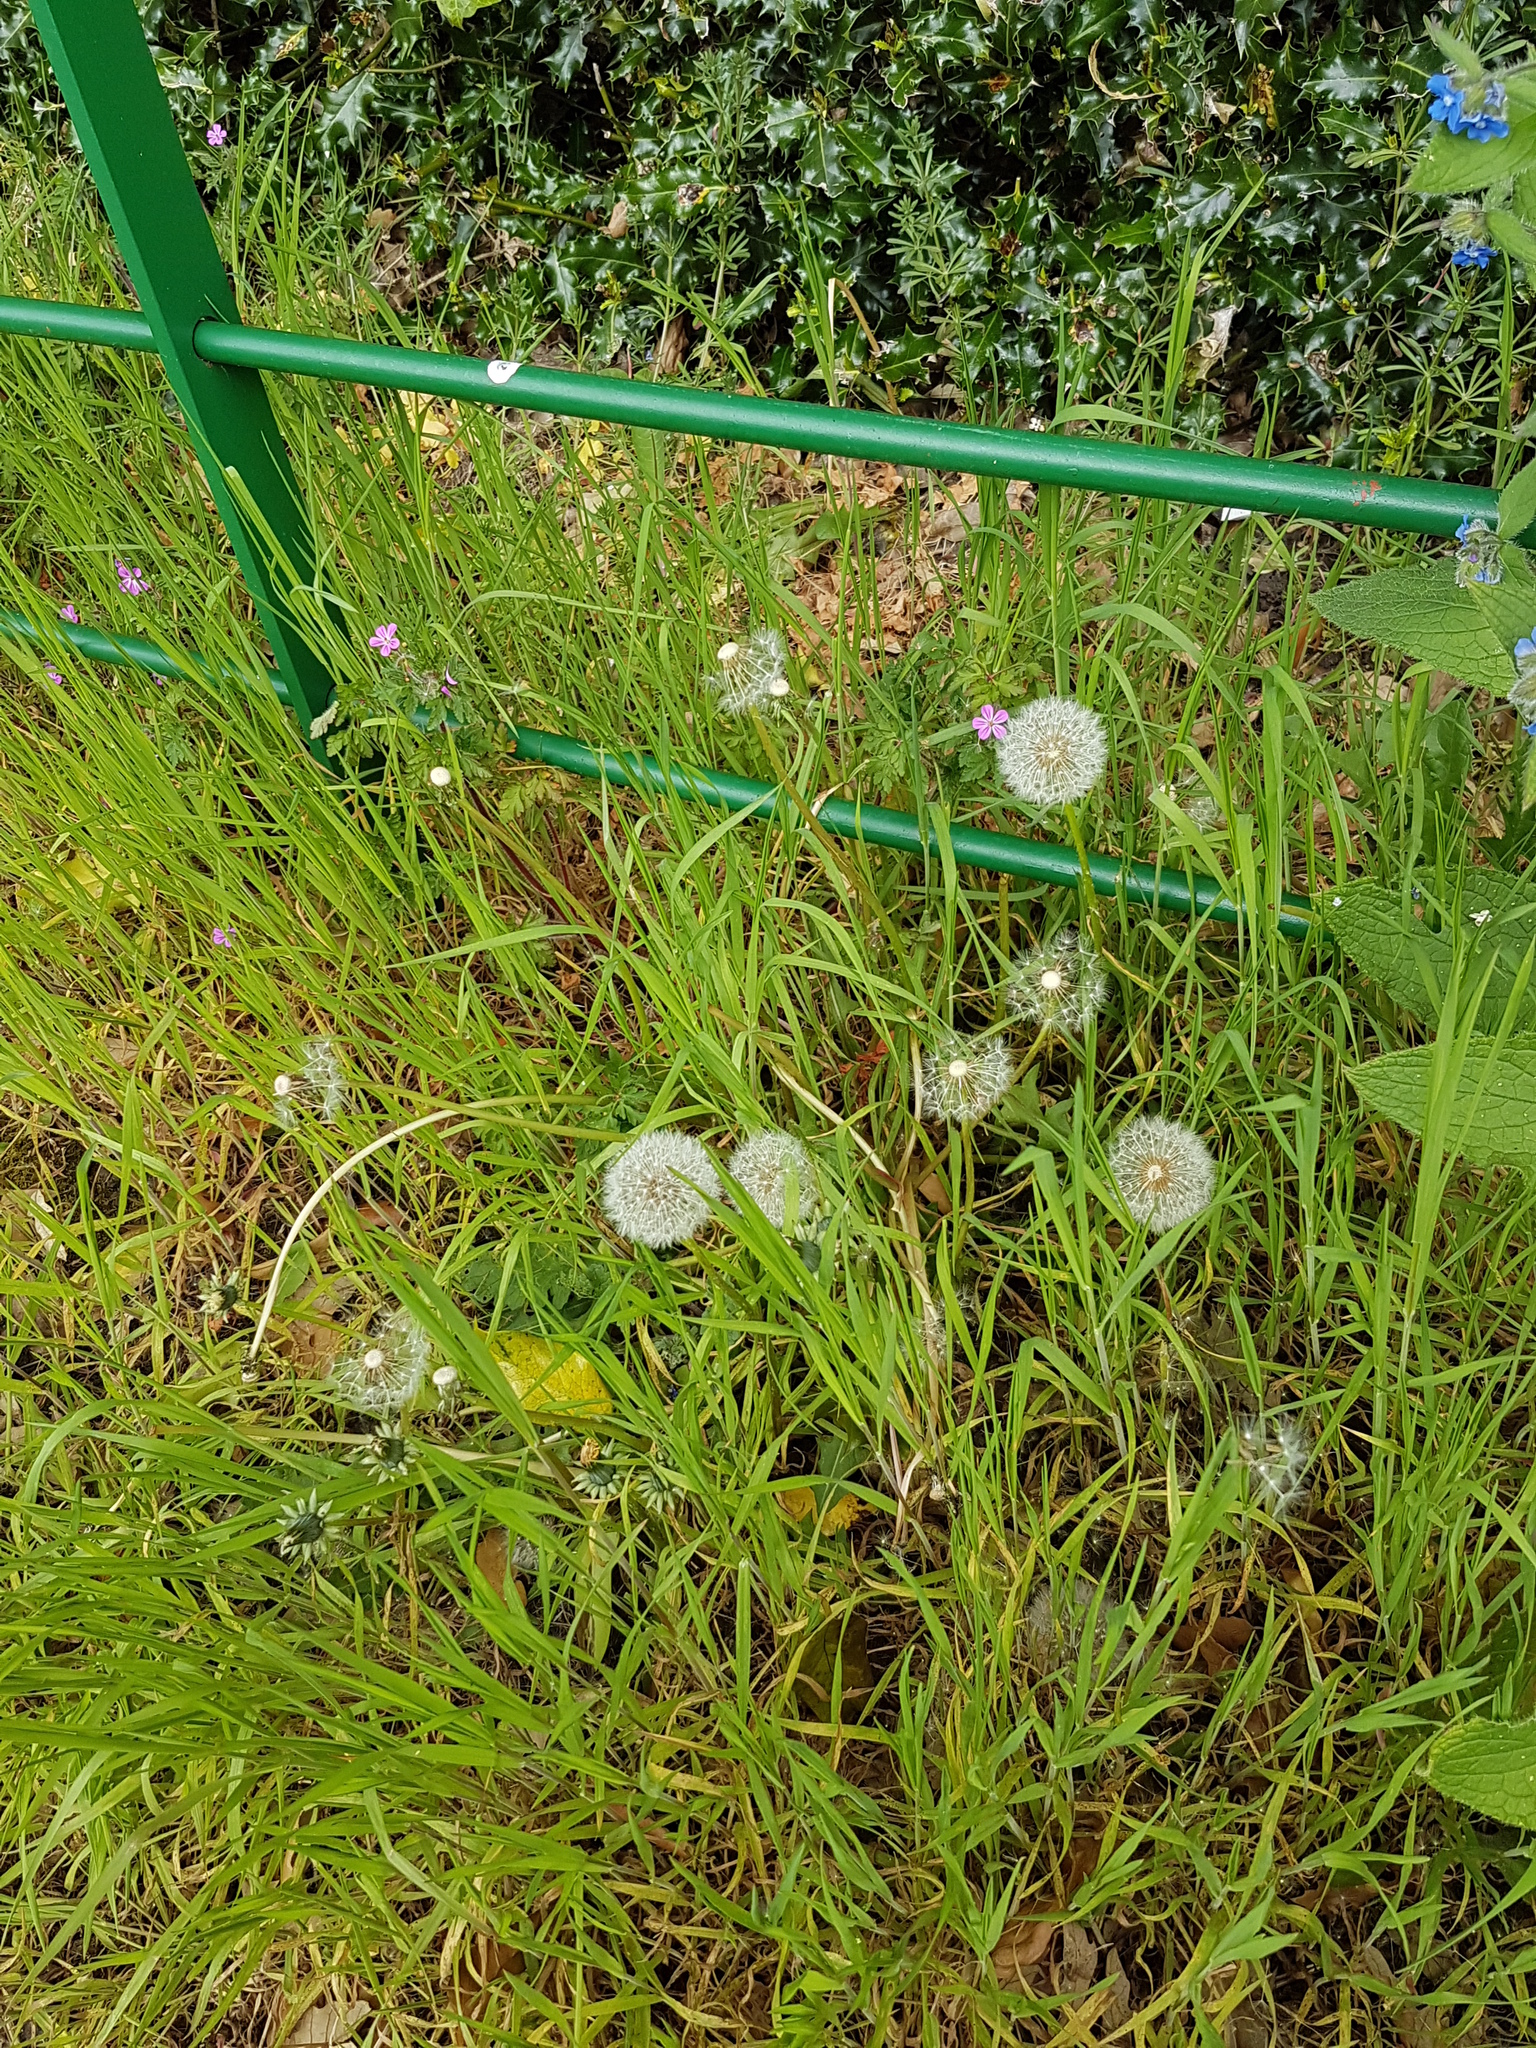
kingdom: Plantae
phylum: Tracheophyta
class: Magnoliopsida
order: Asterales
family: Asteraceae
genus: Taraxacum
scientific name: Taraxacum officinale
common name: Common dandelion
